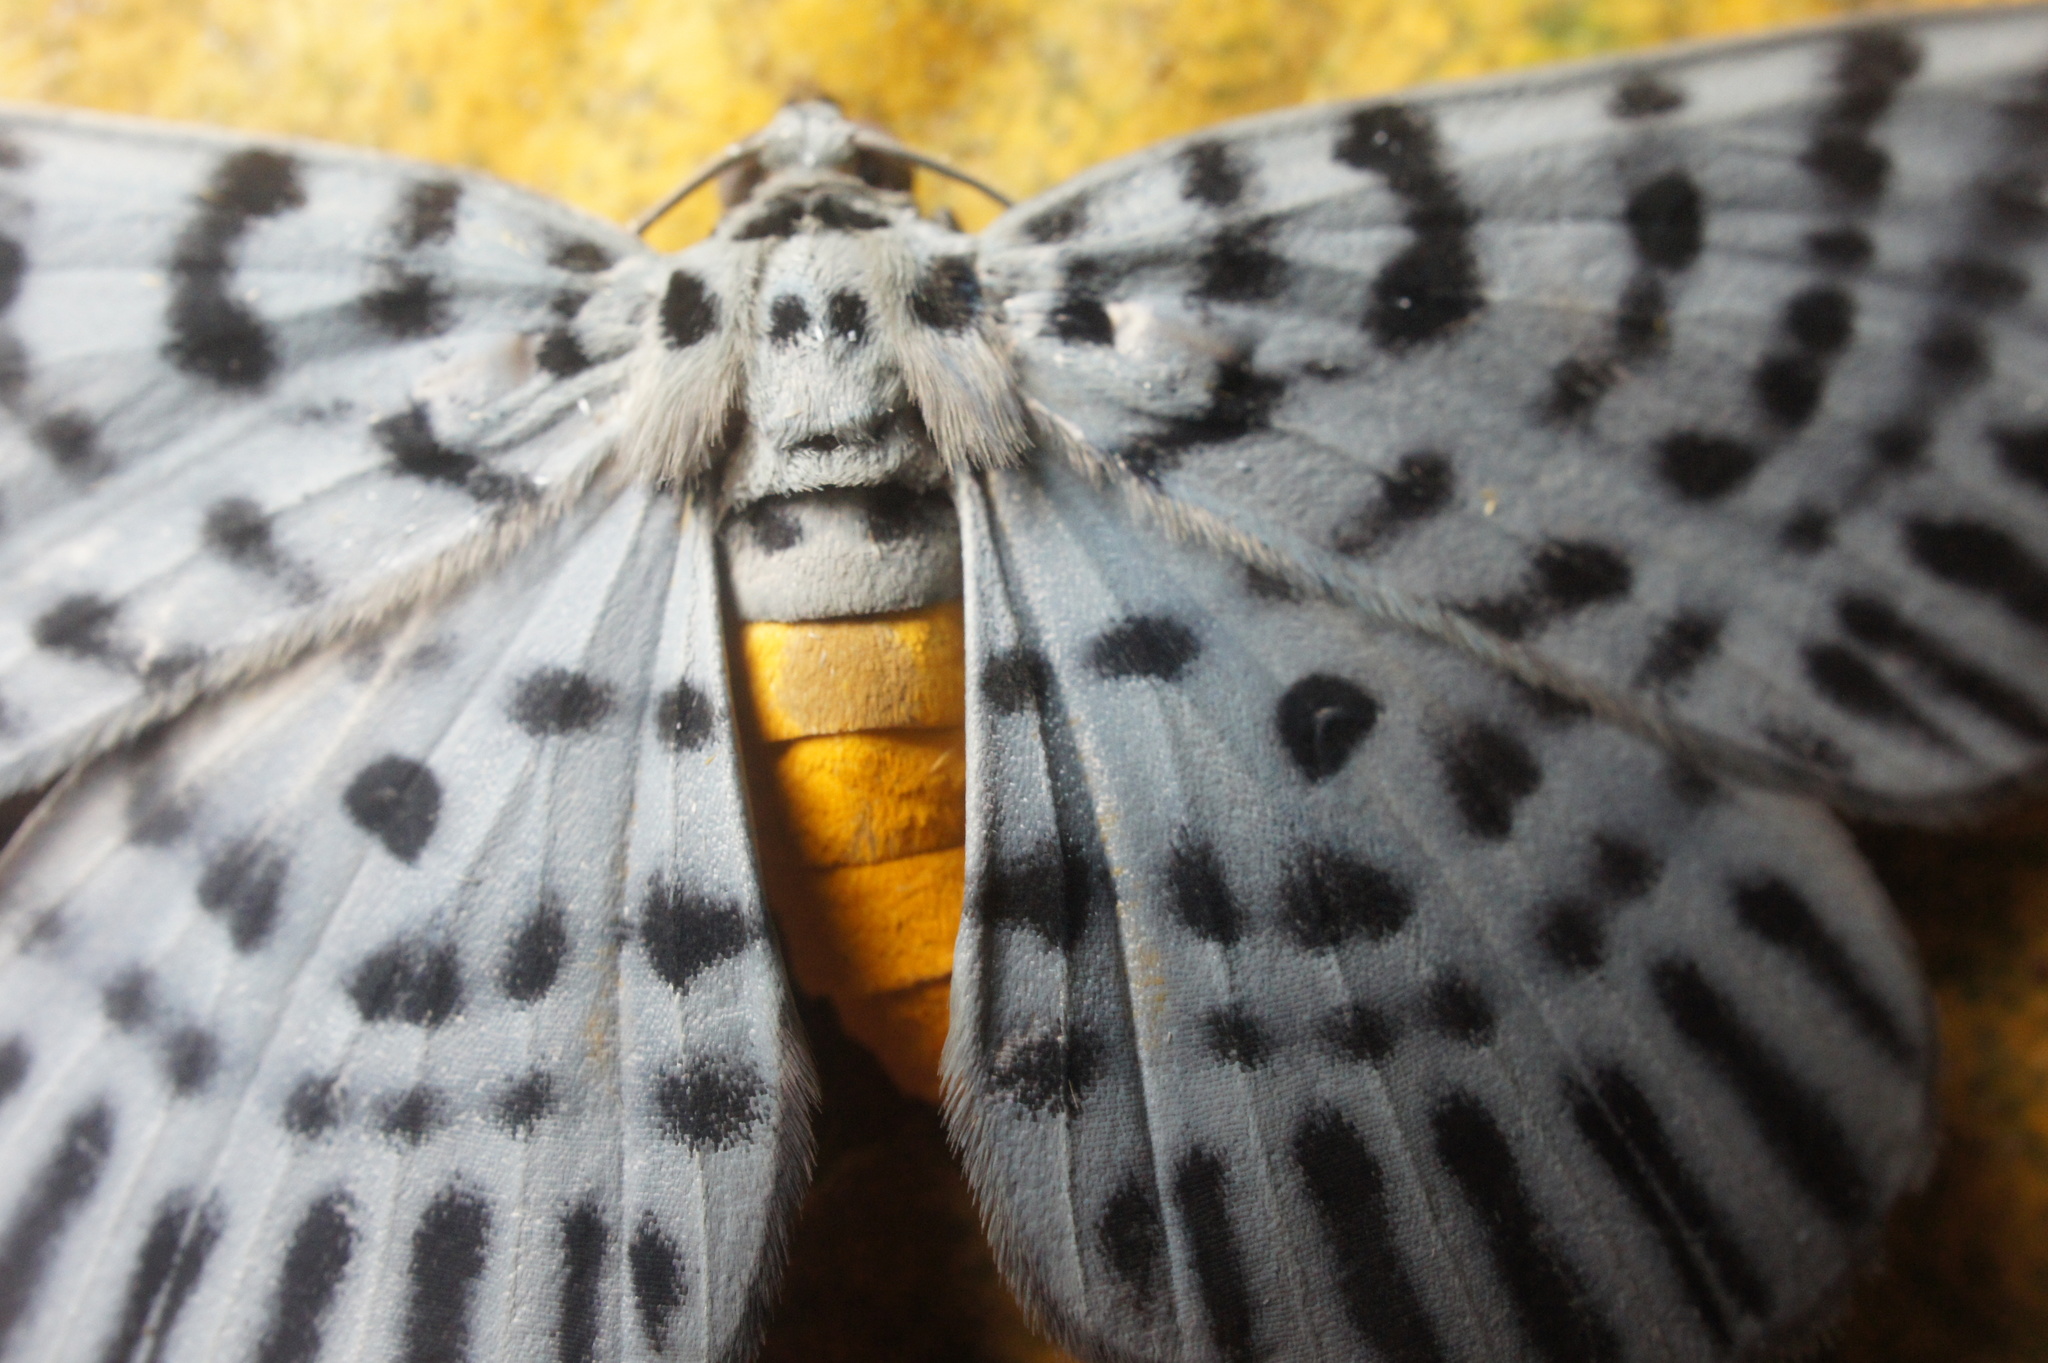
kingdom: Animalia
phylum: Arthropoda
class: Insecta
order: Lepidoptera
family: Geometridae
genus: Bracca
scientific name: Bracca georgiata
